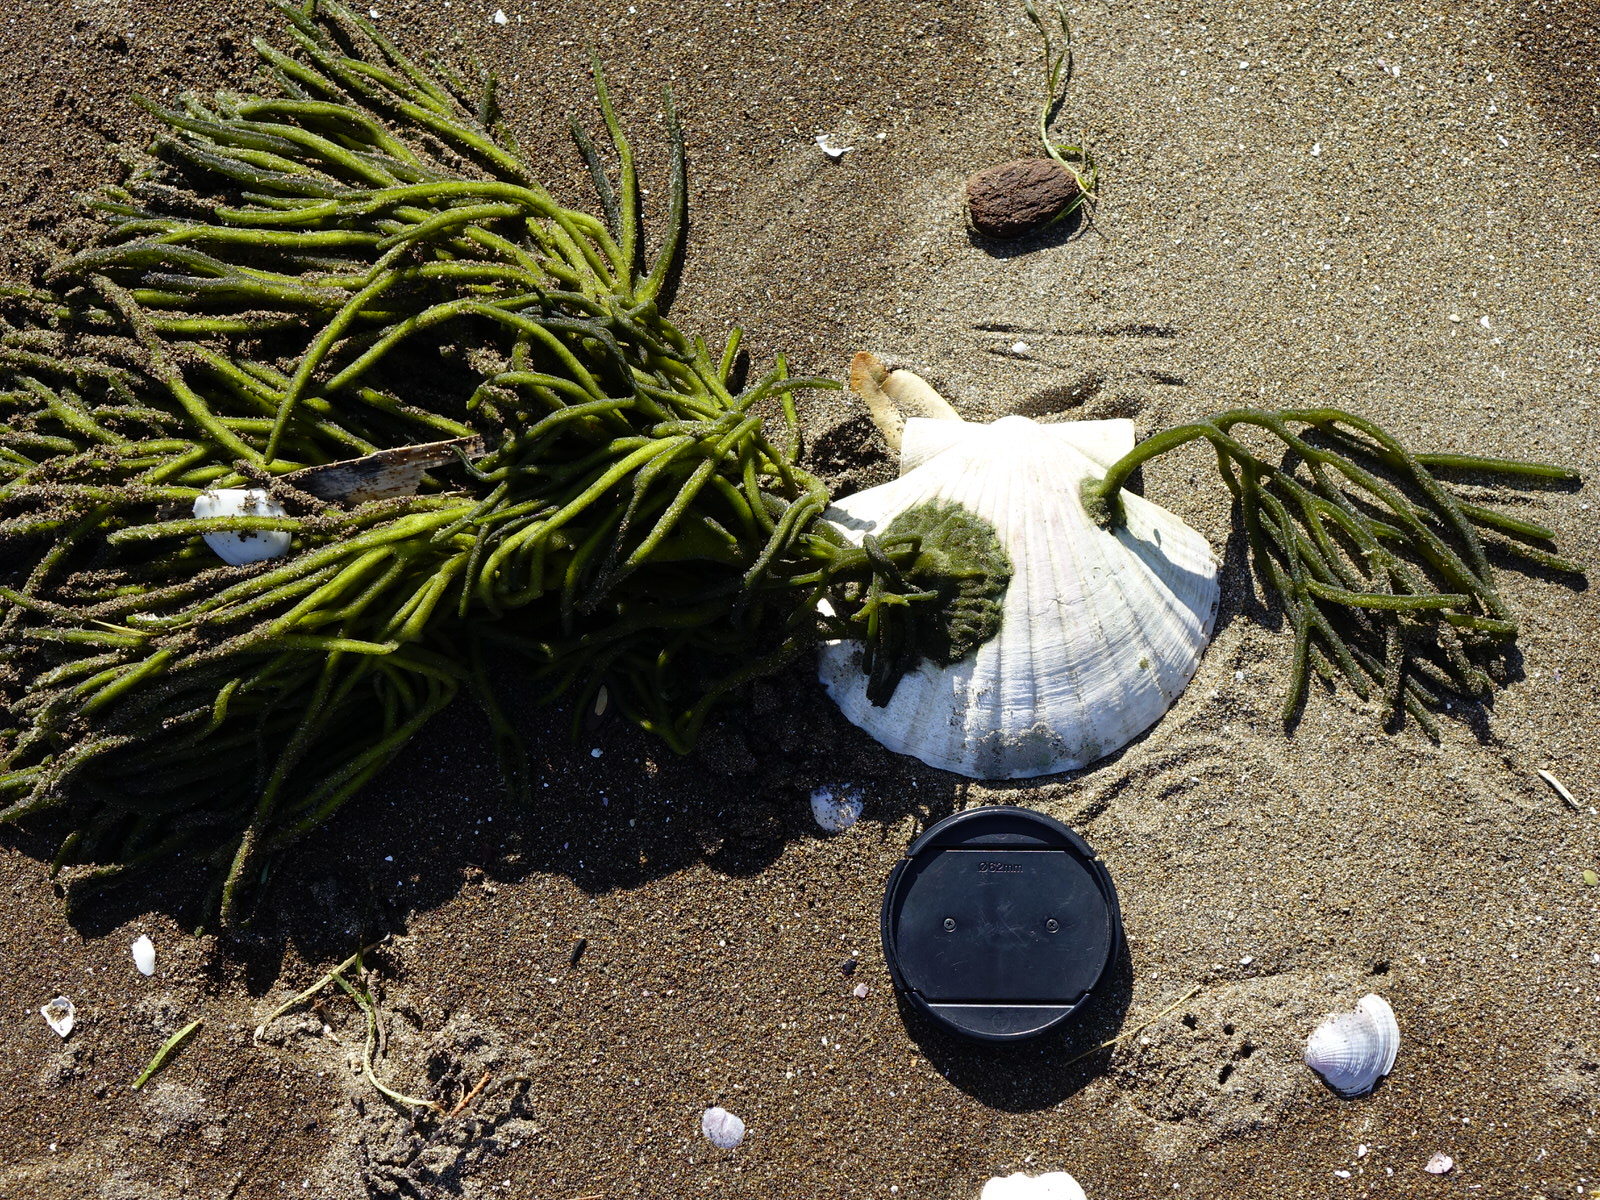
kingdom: Animalia
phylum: Mollusca
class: Bivalvia
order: Pectinida
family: Pectinidae
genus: Pecten
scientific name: Pecten novaezelandiae
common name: New zealand scallop
